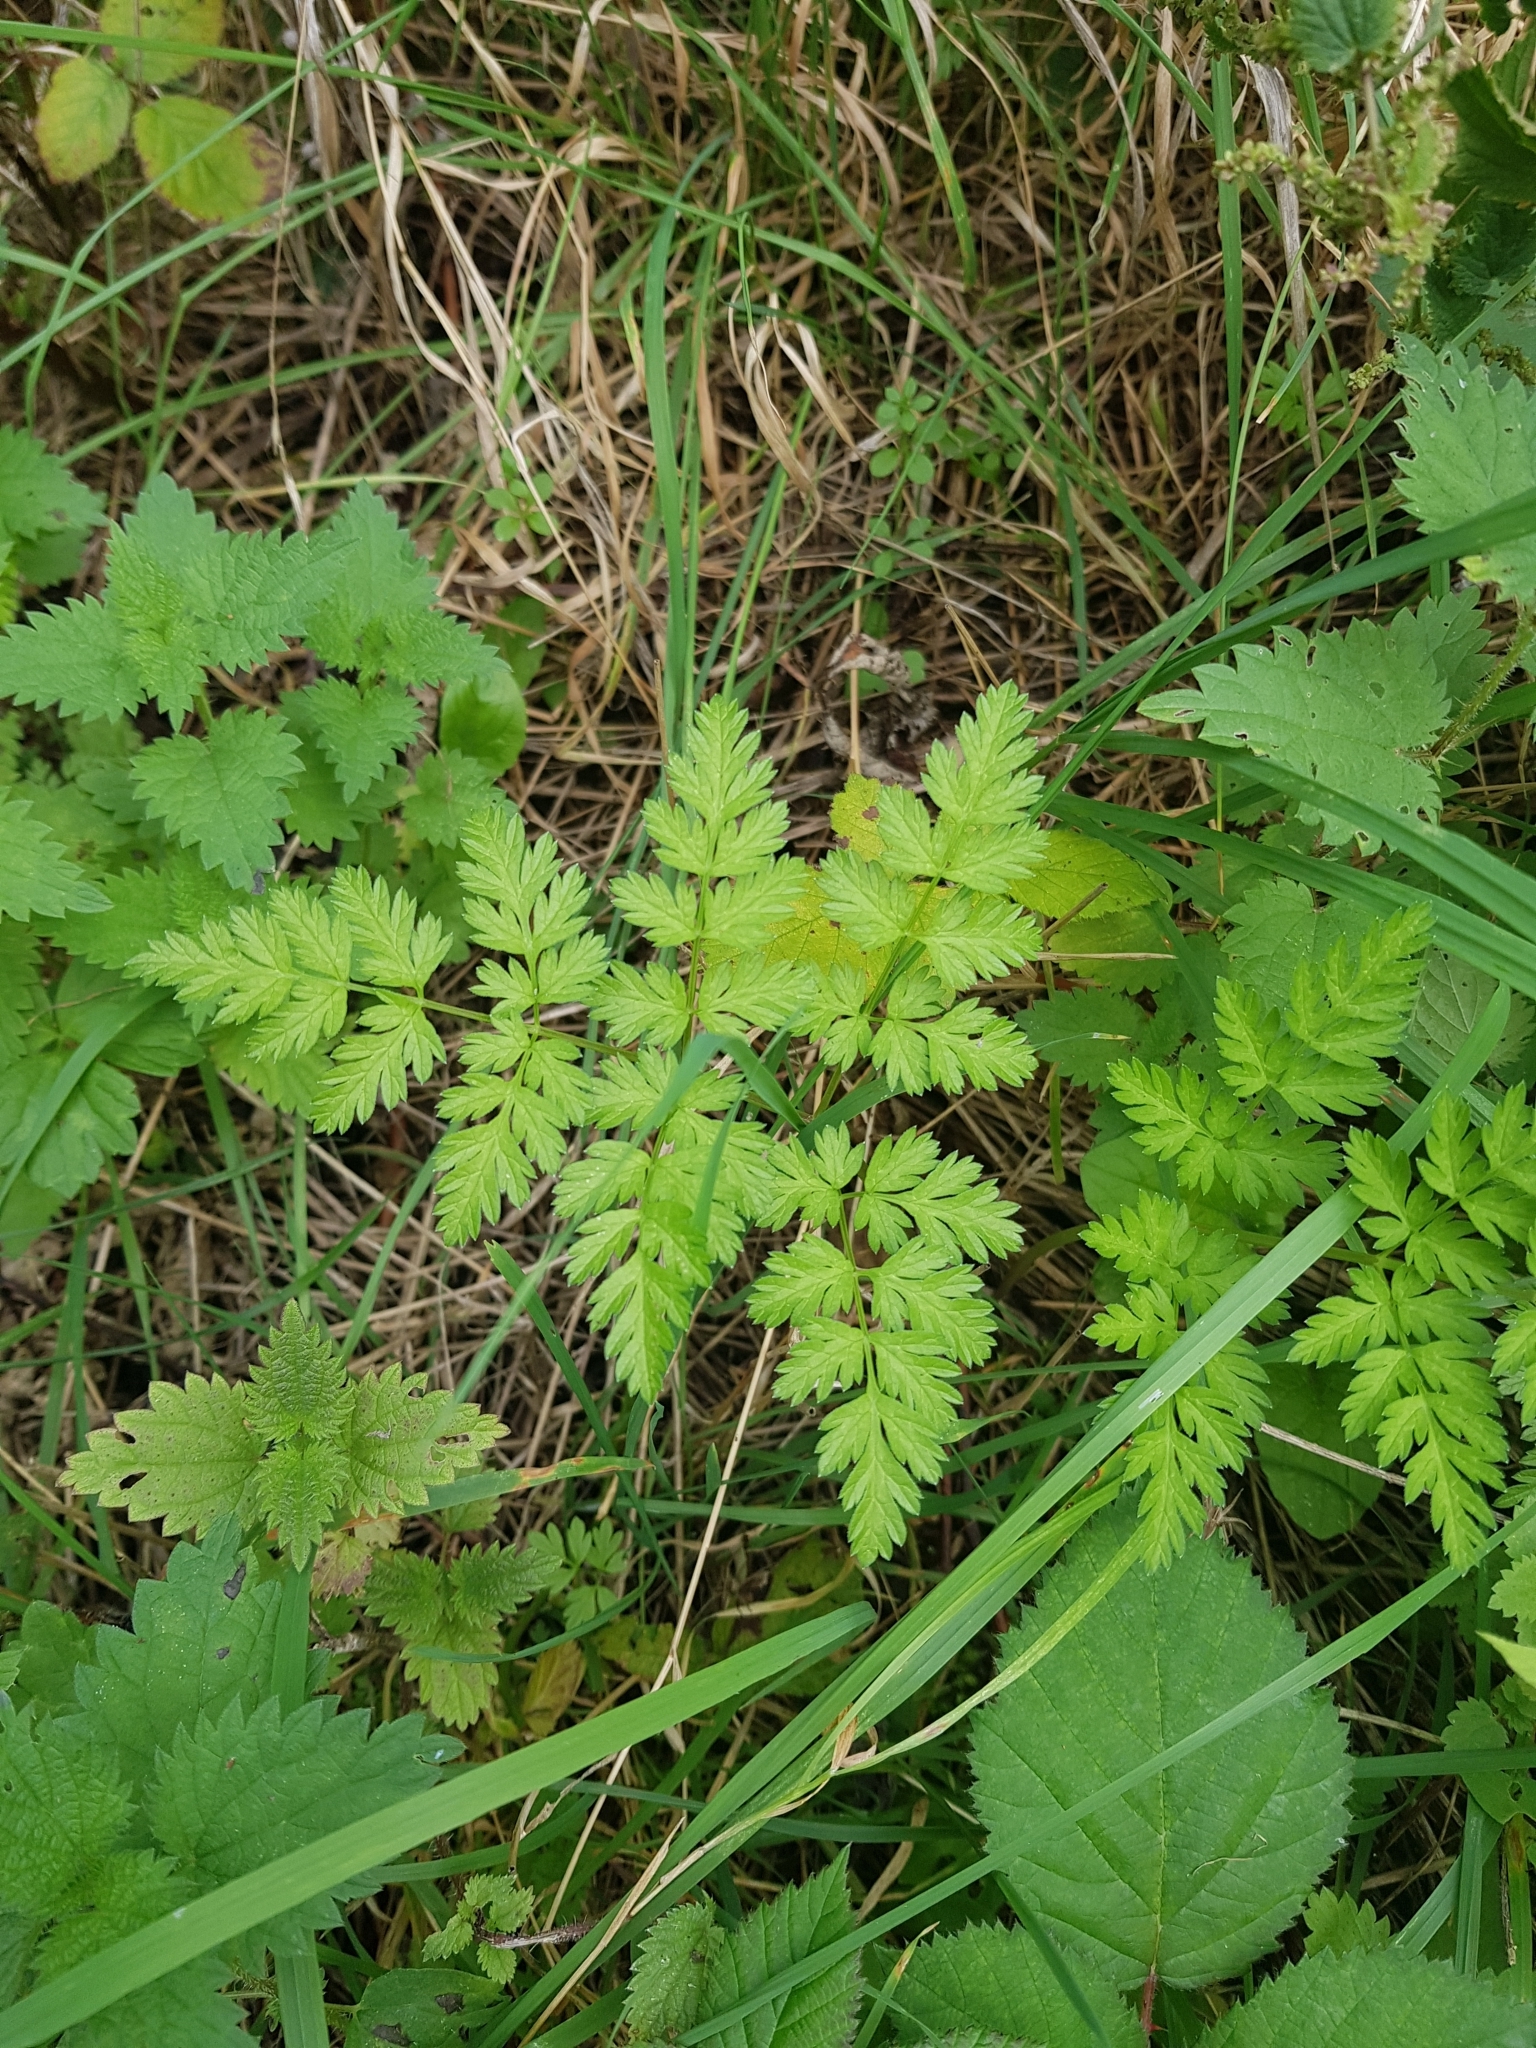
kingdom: Plantae
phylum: Tracheophyta
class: Magnoliopsida
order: Apiales
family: Apiaceae
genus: Anthriscus
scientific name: Anthriscus sylvestris
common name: Cow parsley
